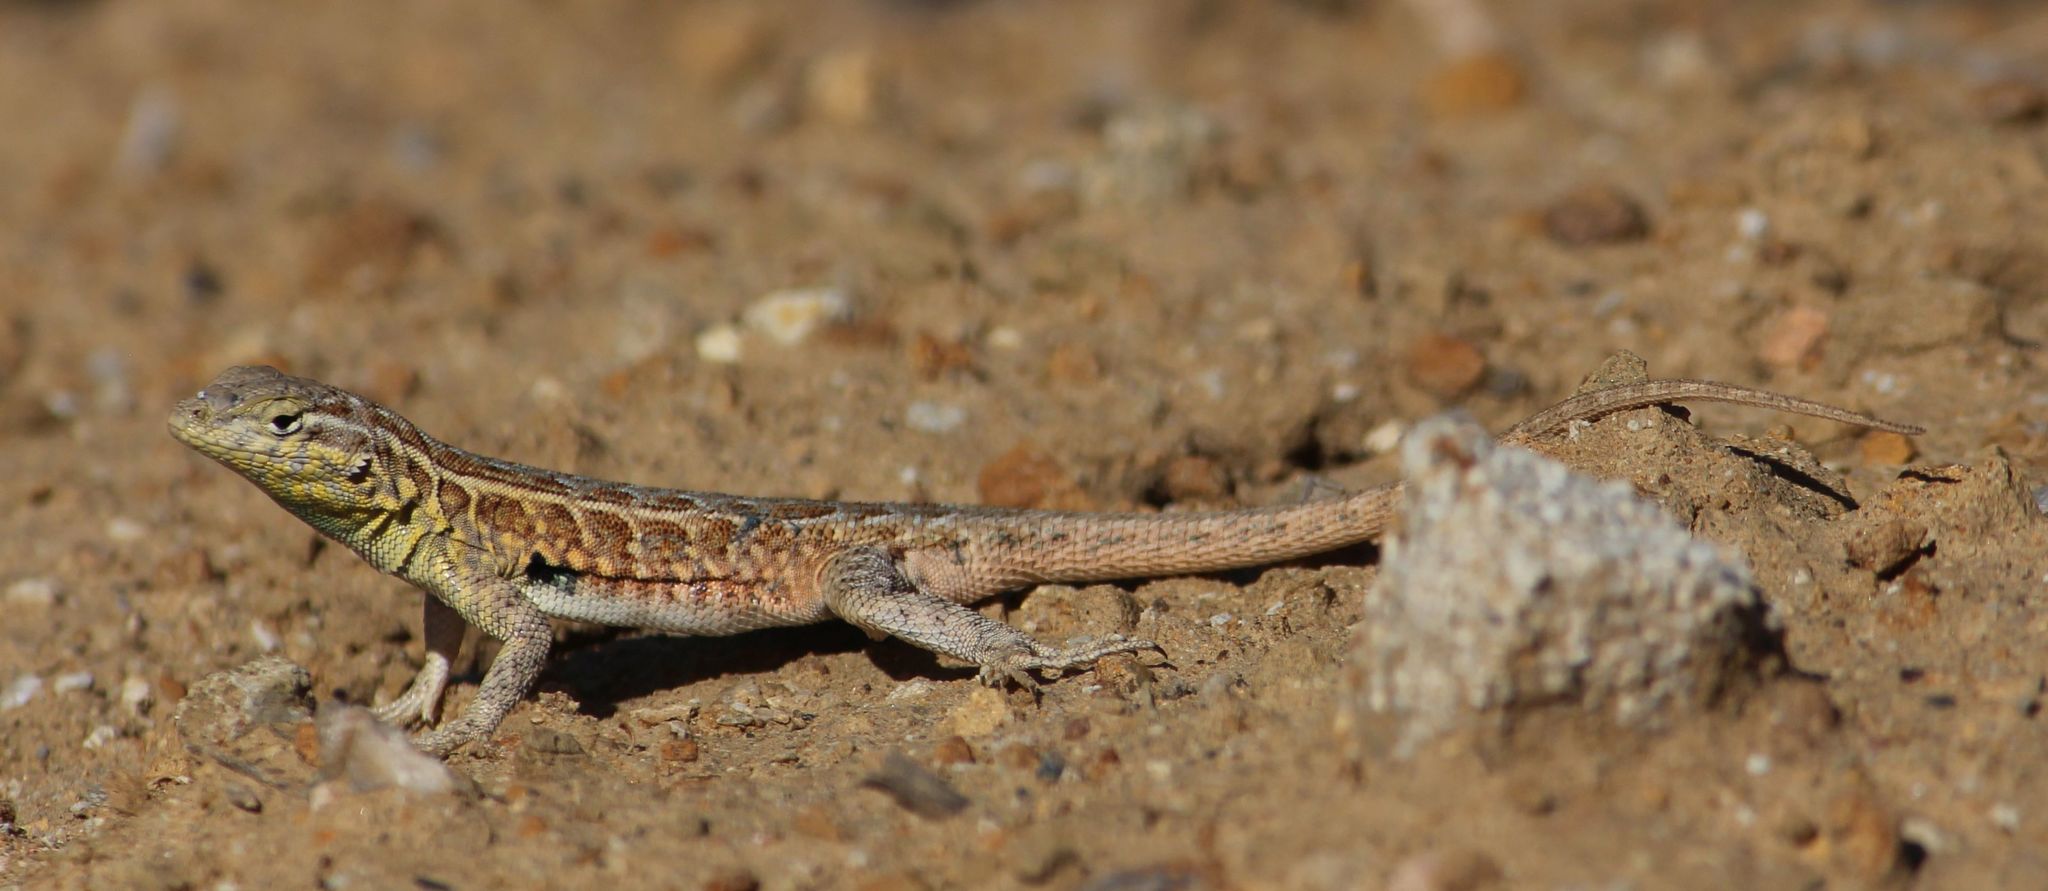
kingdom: Animalia
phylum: Chordata
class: Squamata
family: Phrynosomatidae
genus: Uta
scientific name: Uta stansburiana
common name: Side-blotched lizard
